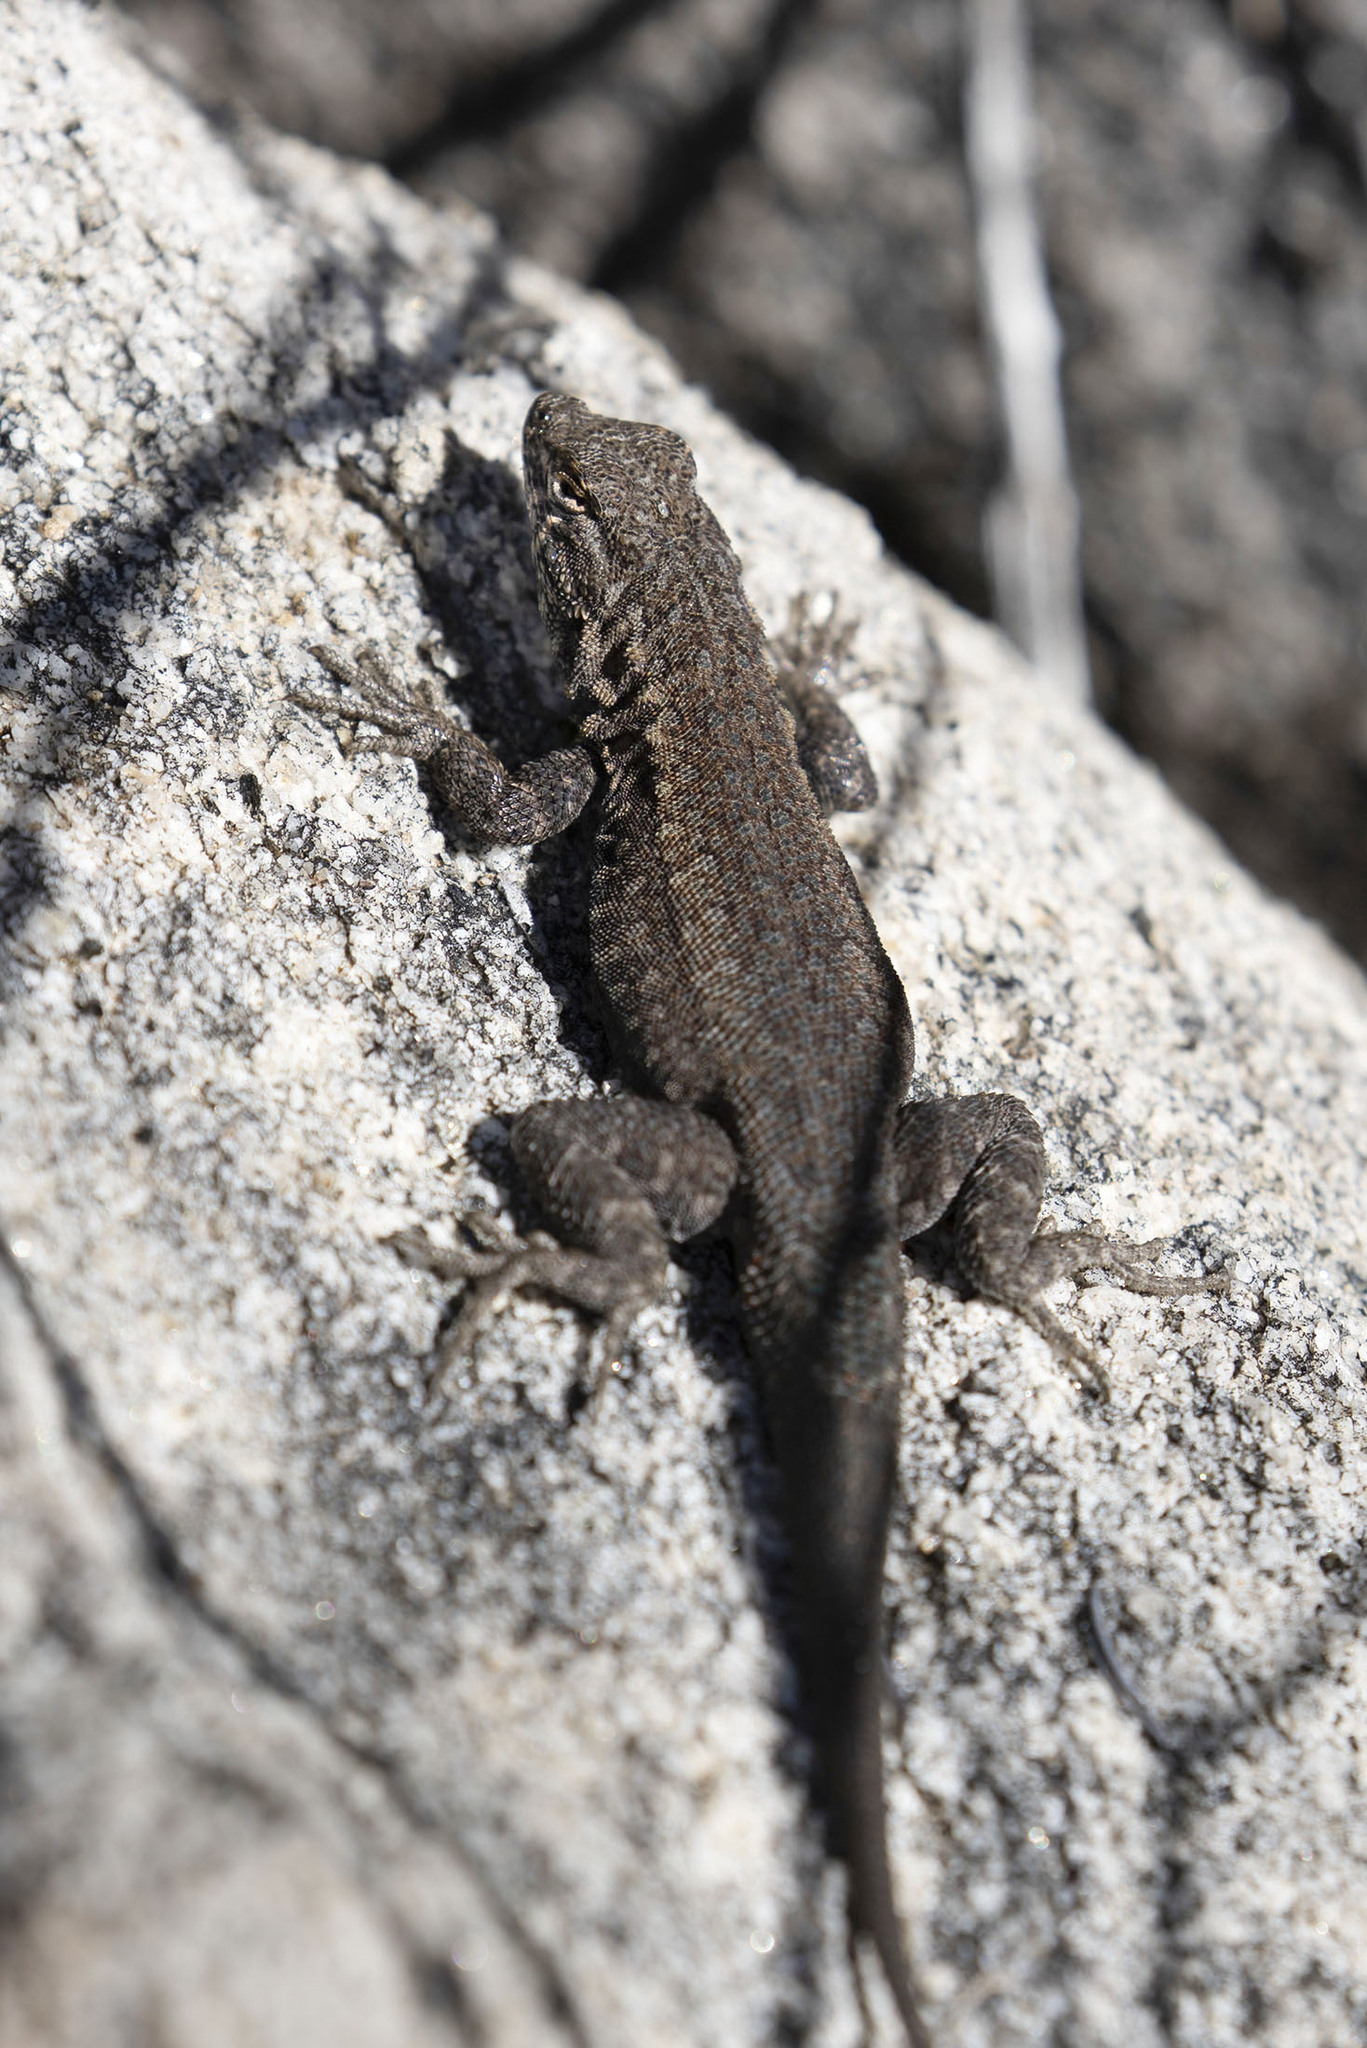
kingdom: Animalia
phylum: Chordata
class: Squamata
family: Phrynosomatidae
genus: Uta
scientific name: Uta stansburiana
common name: Side-blotched lizard
